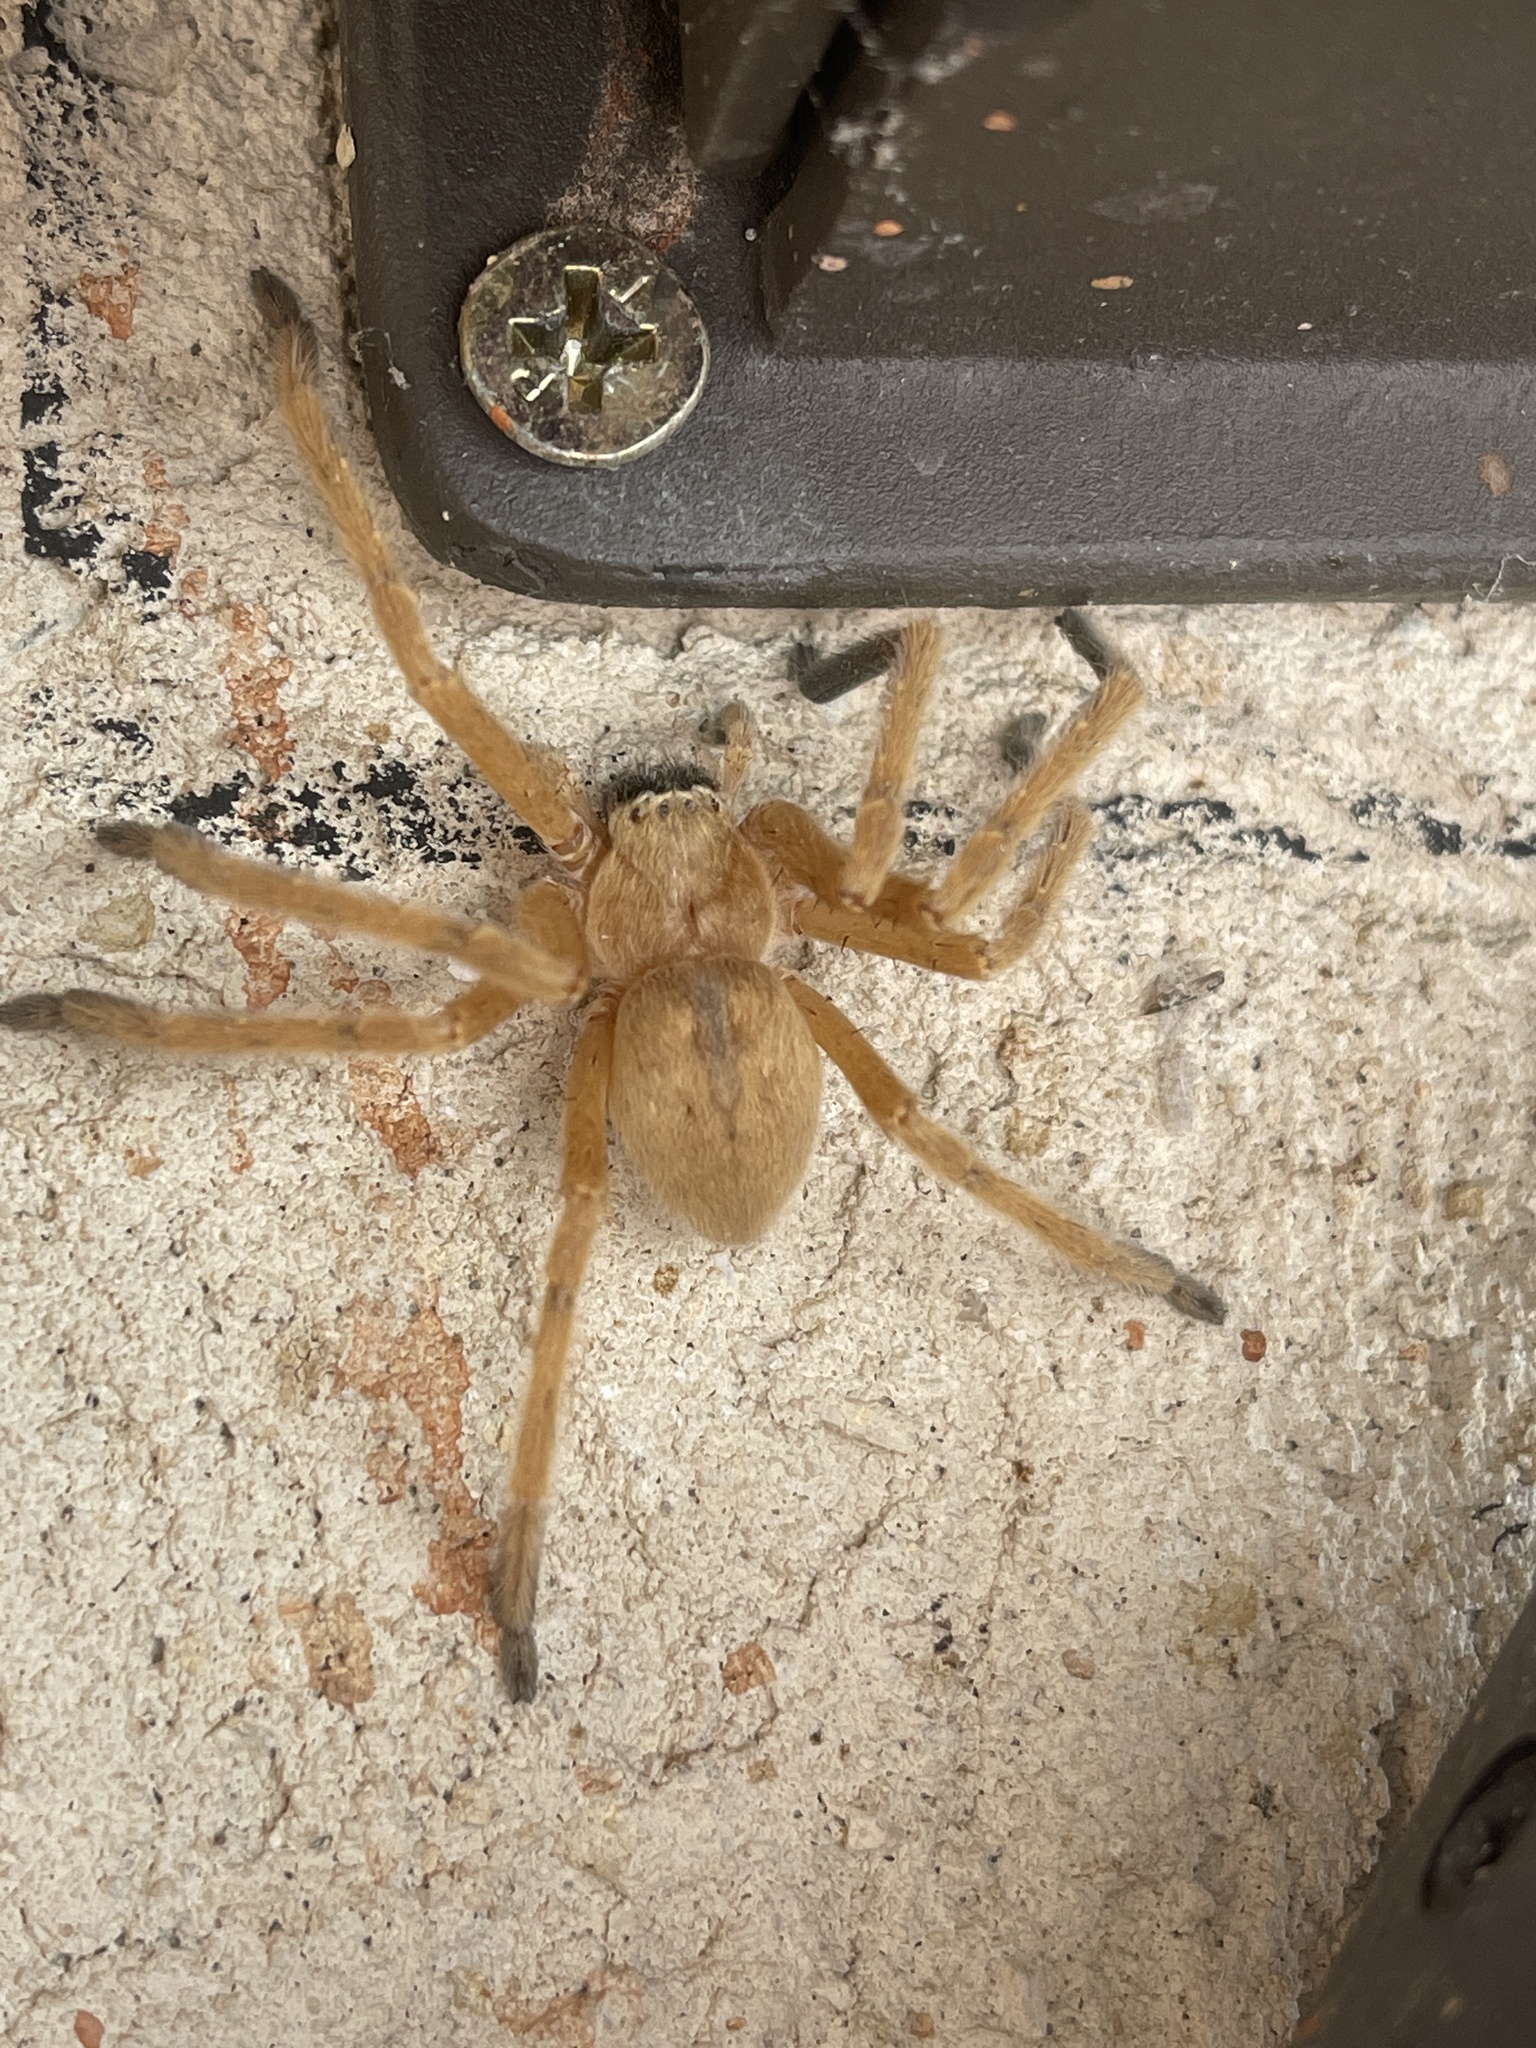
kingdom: Animalia
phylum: Arthropoda
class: Arachnida
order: Araneae
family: Sparassidae
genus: Olios
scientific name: Olios giganteus
